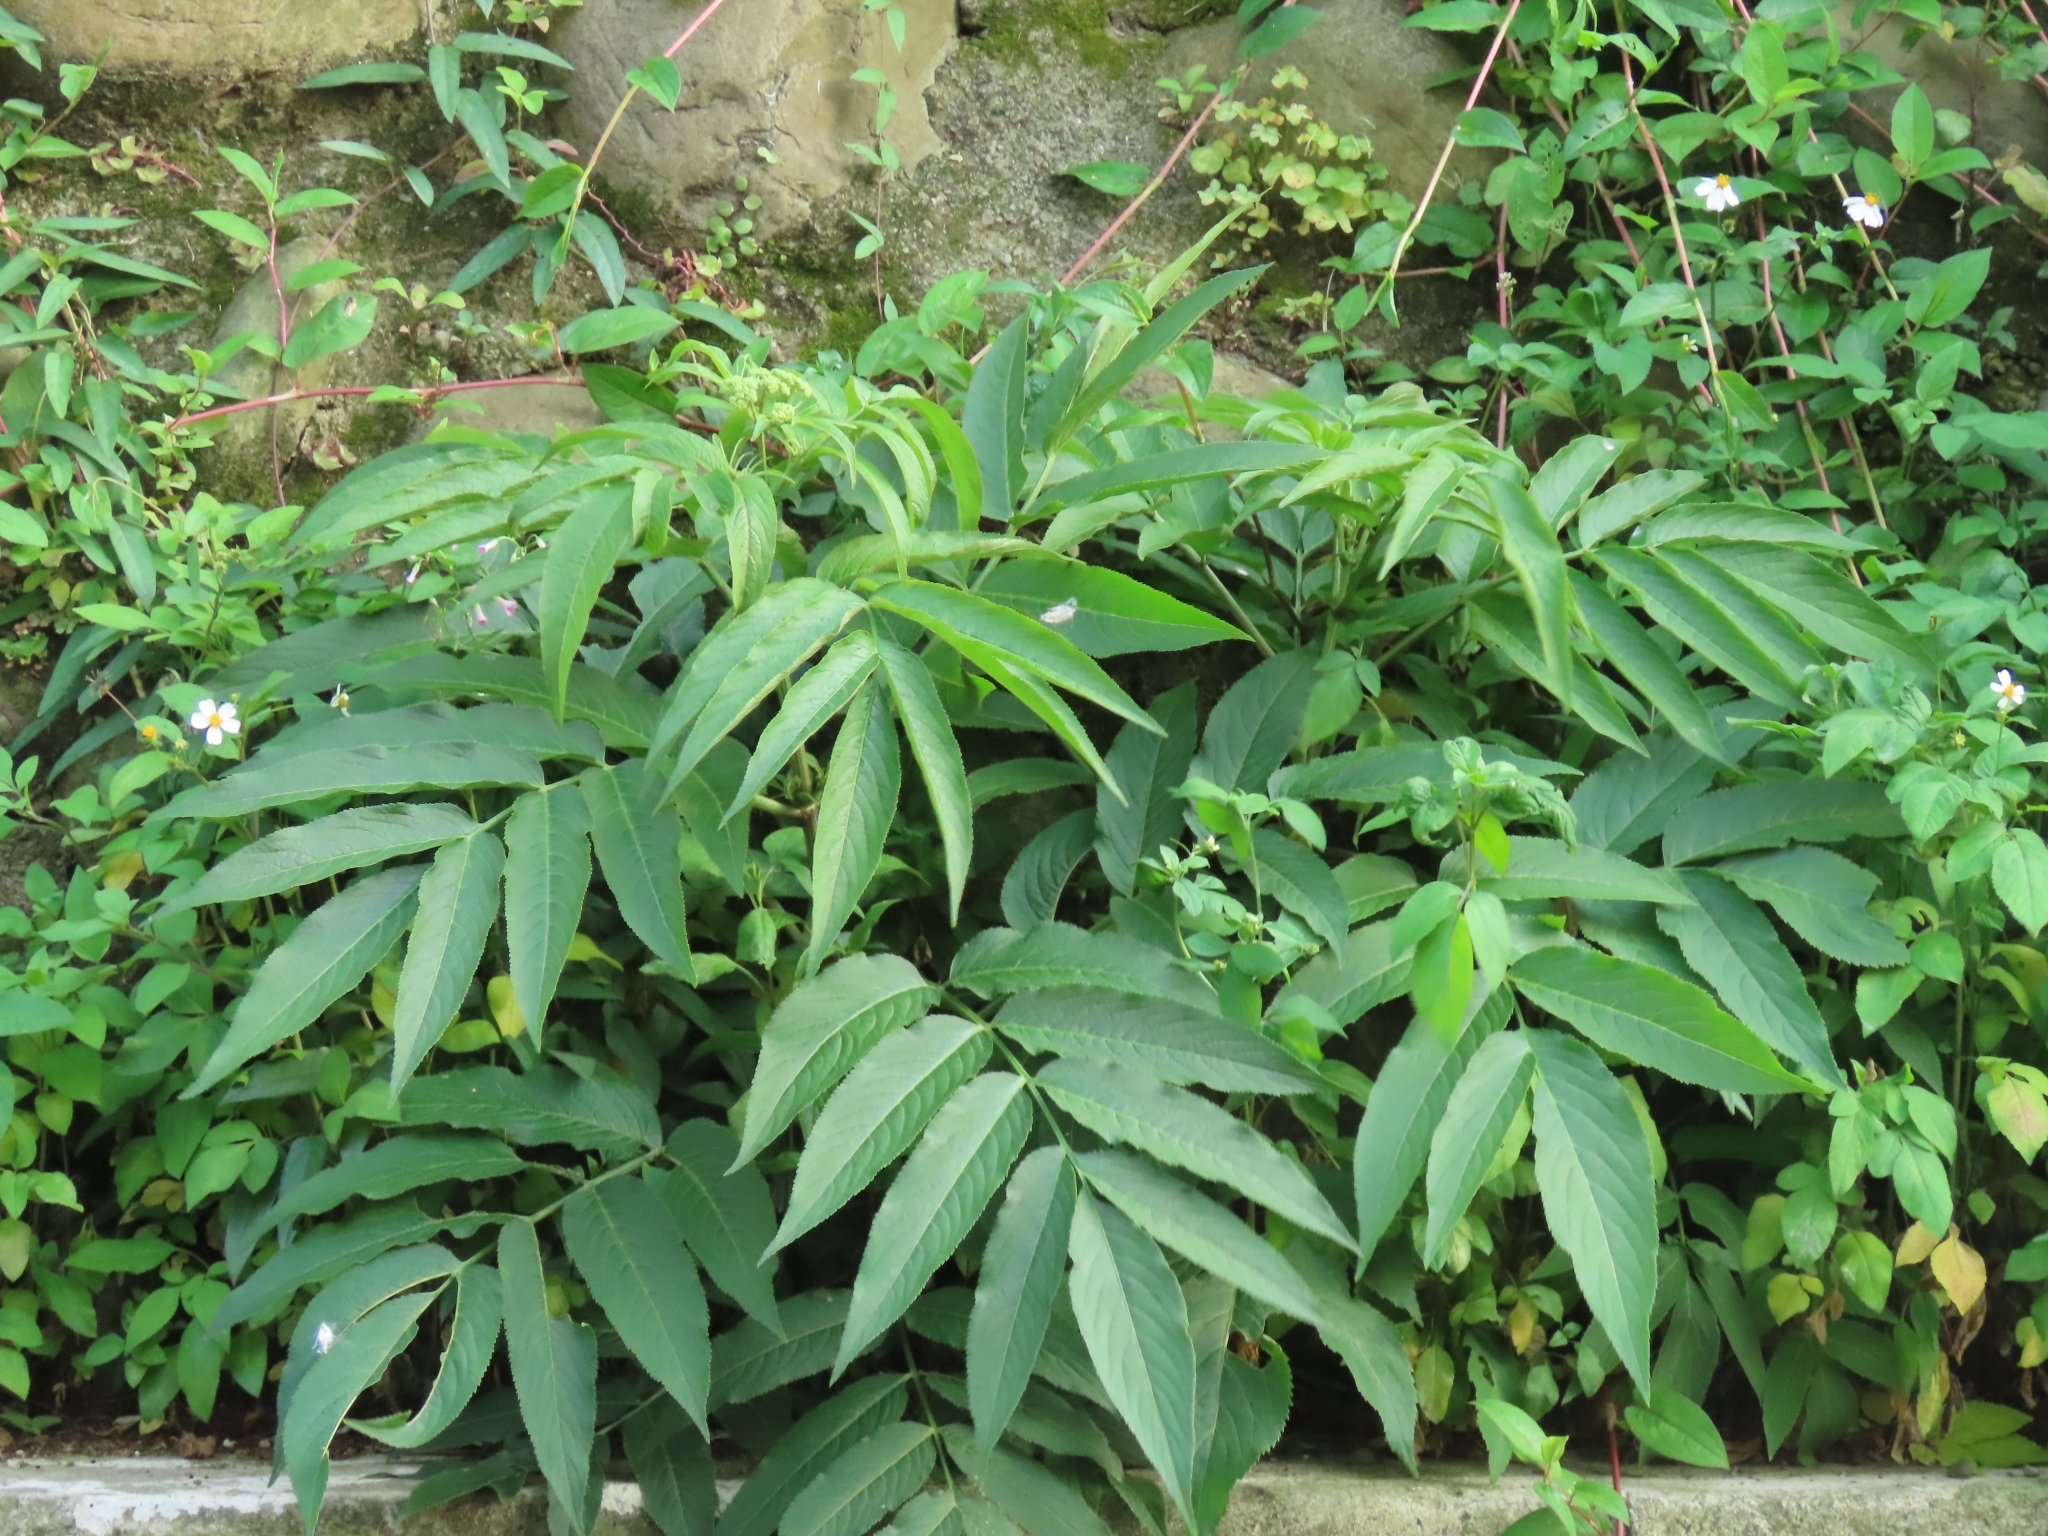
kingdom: Plantae
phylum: Tracheophyta
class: Magnoliopsida
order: Dipsacales
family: Viburnaceae
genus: Sambucus
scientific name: Sambucus javanica
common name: Chinese elder
